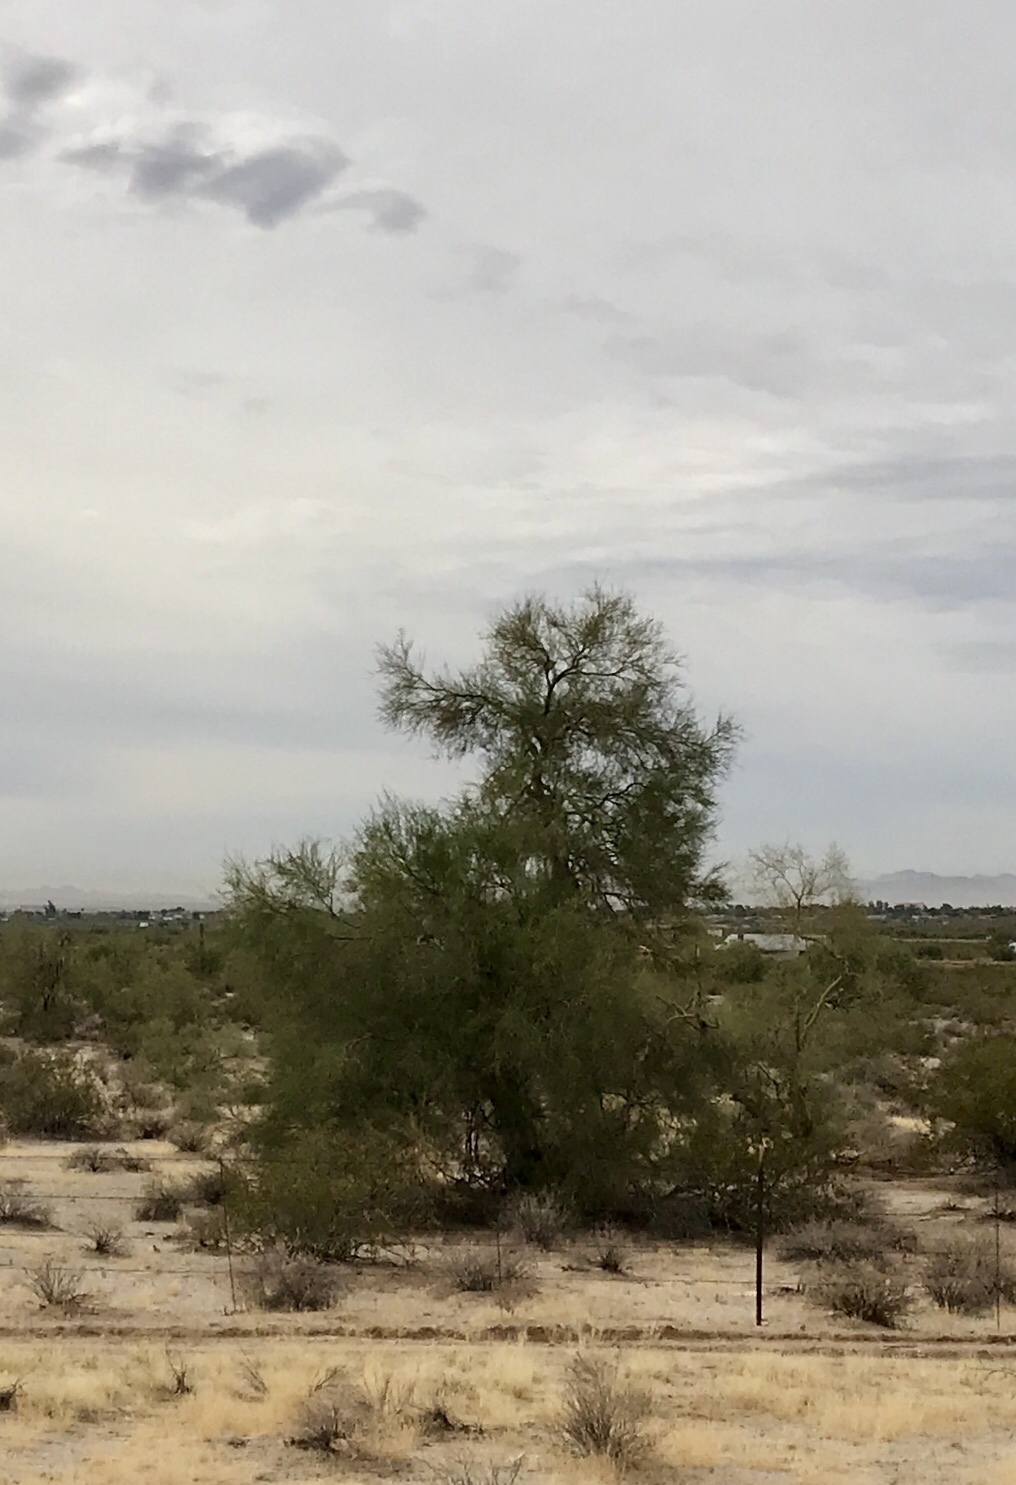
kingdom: Plantae
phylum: Tracheophyta
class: Magnoliopsida
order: Fabales
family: Fabaceae
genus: Parkinsonia
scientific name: Parkinsonia microphylla
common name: Yellow paloverde
